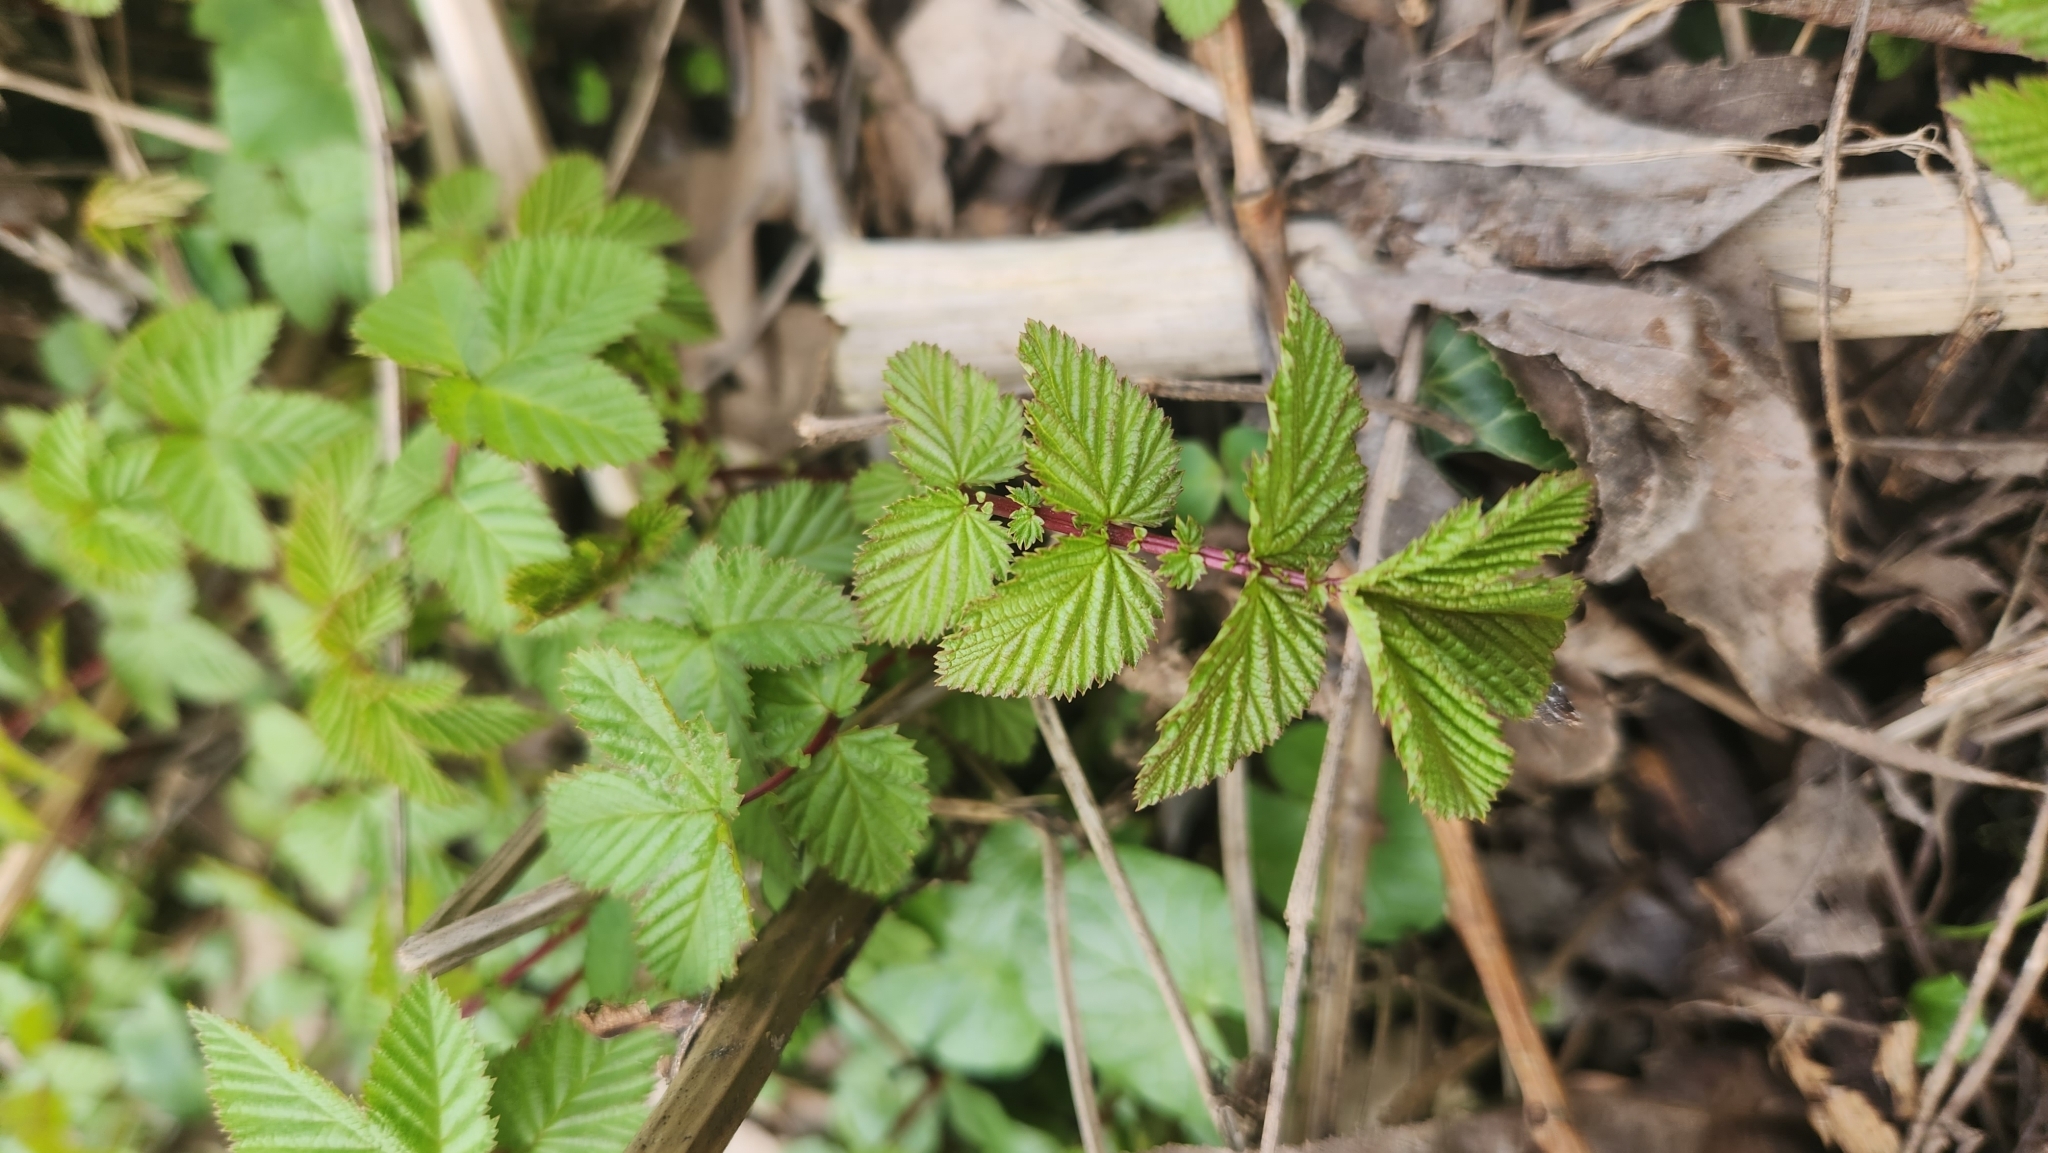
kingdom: Plantae
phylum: Tracheophyta
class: Magnoliopsida
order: Rosales
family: Rosaceae
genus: Filipendula
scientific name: Filipendula ulmaria
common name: Meadowsweet
